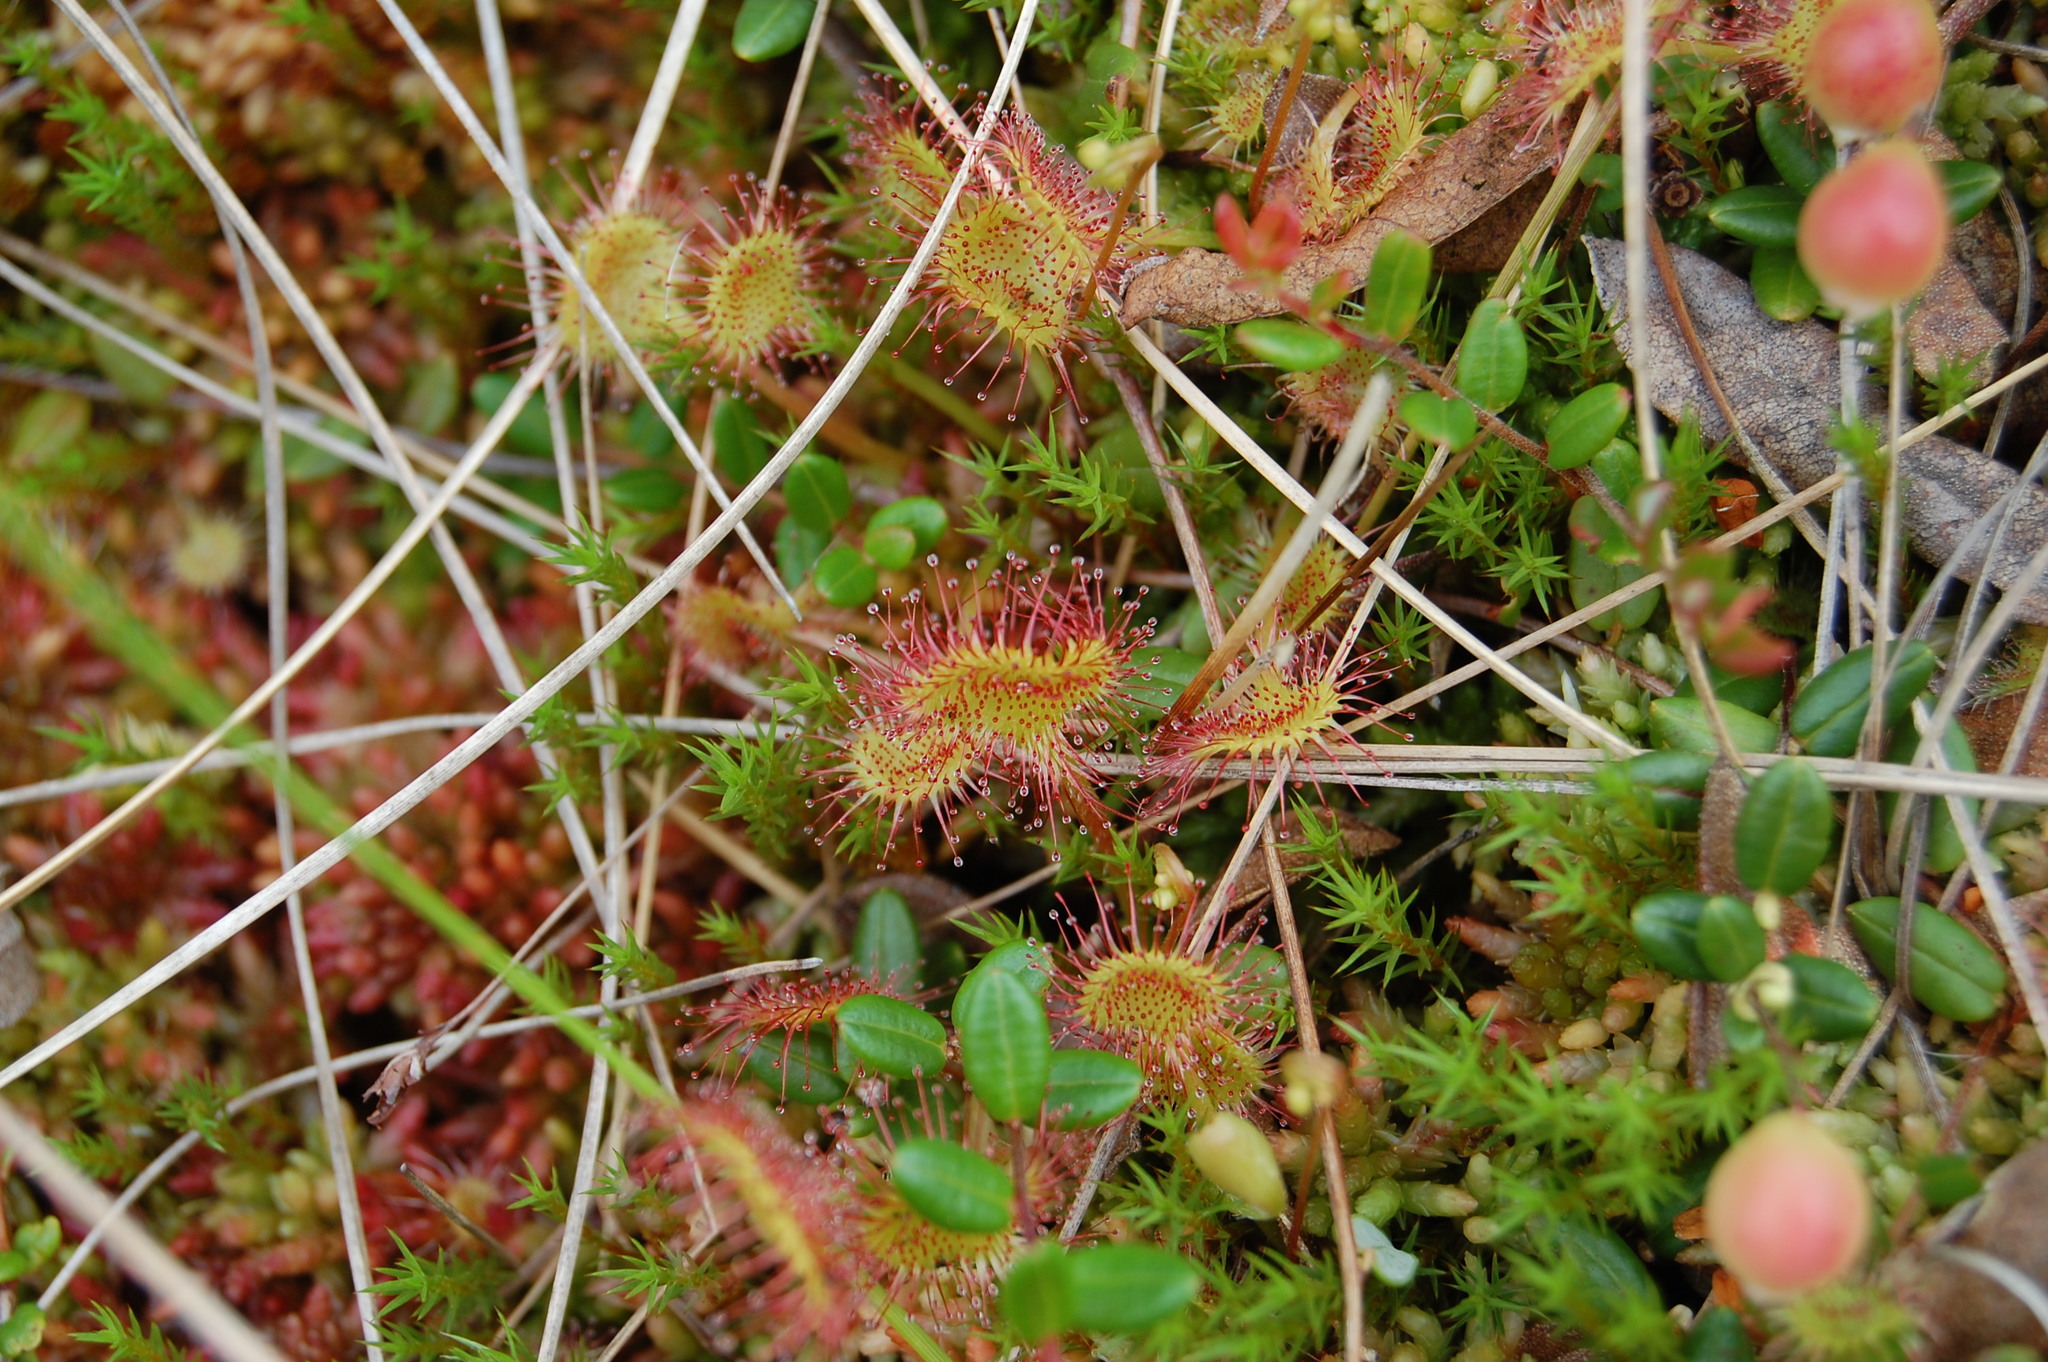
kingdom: Plantae
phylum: Tracheophyta
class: Magnoliopsida
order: Caryophyllales
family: Droseraceae
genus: Drosera
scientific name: Drosera rotundifolia
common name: Round-leaved sundew
